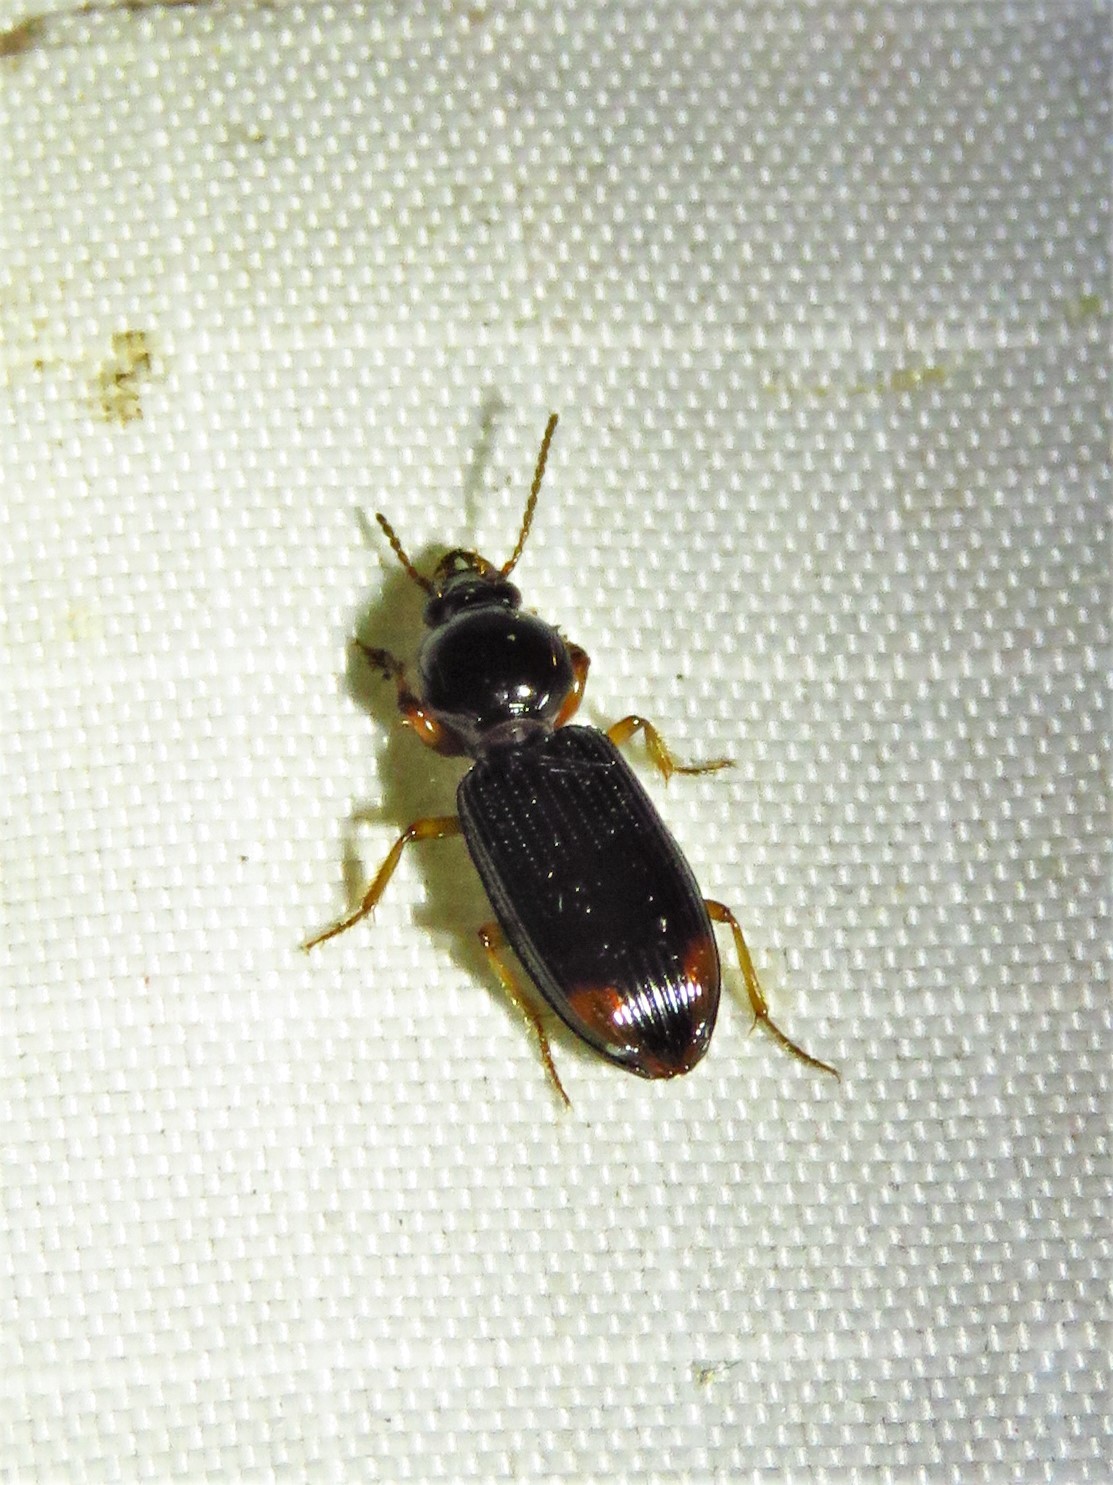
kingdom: Animalia
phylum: Arthropoda
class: Insecta
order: Coleoptera
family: Carabidae
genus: Aspidoglossa
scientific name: Aspidoglossa subangulata
